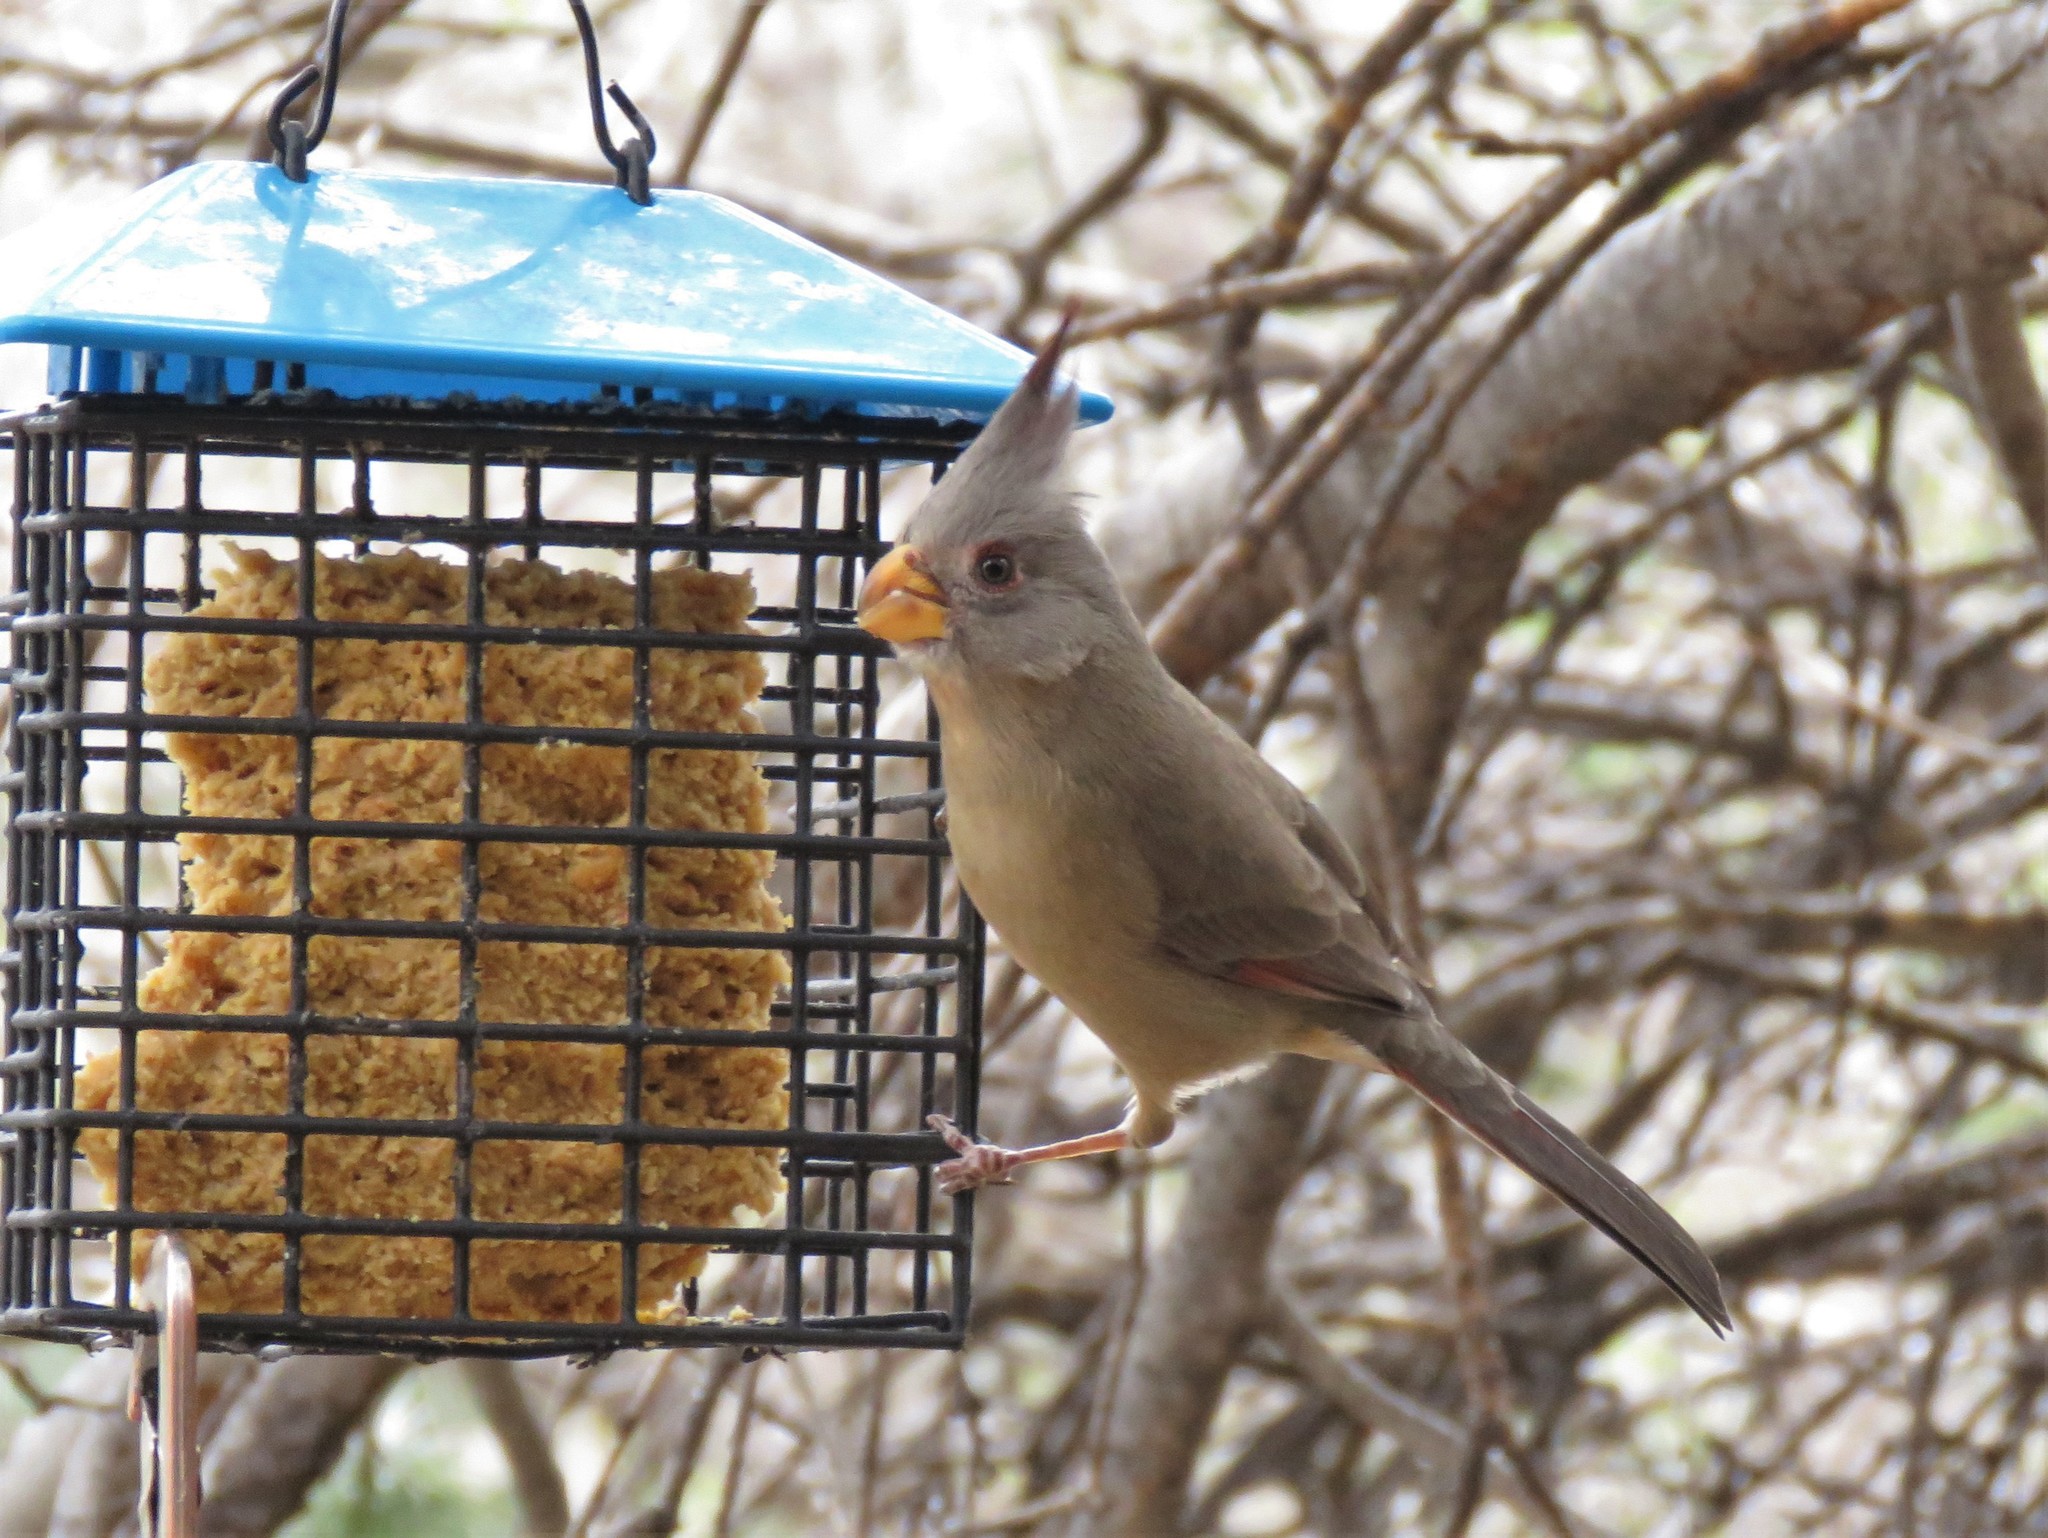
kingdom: Animalia
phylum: Chordata
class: Aves
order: Passeriformes
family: Cardinalidae
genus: Cardinalis
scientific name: Cardinalis sinuatus
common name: Pyrrhuloxia
